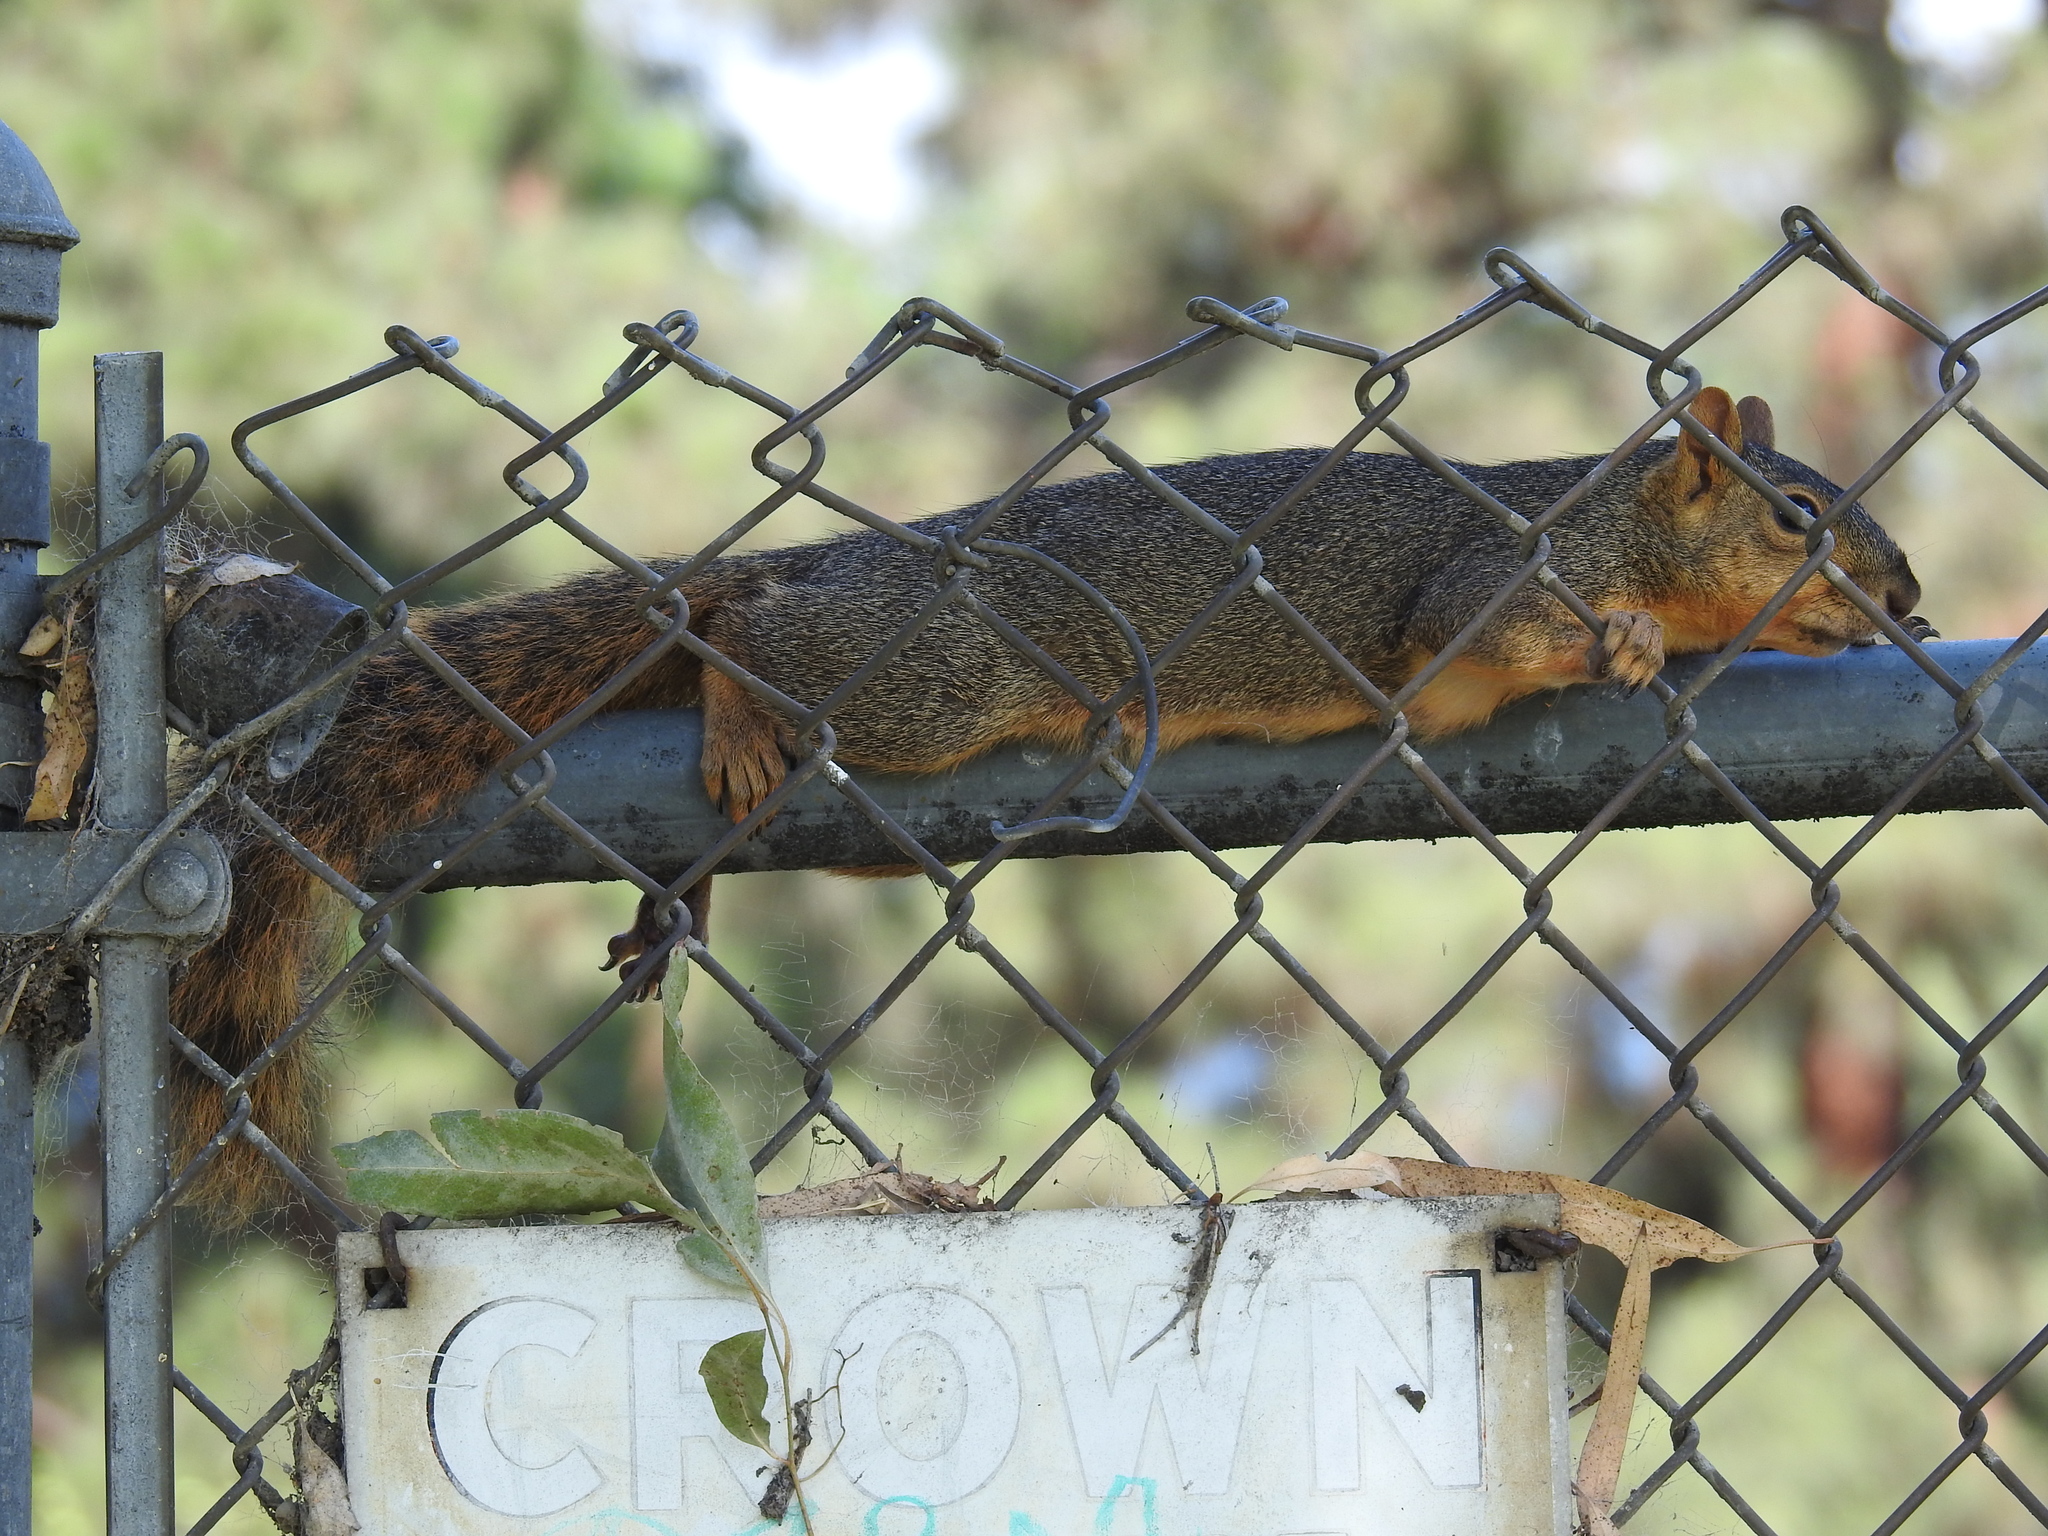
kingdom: Animalia
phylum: Chordata
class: Mammalia
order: Rodentia
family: Sciuridae
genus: Sciurus
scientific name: Sciurus niger
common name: Fox squirrel
